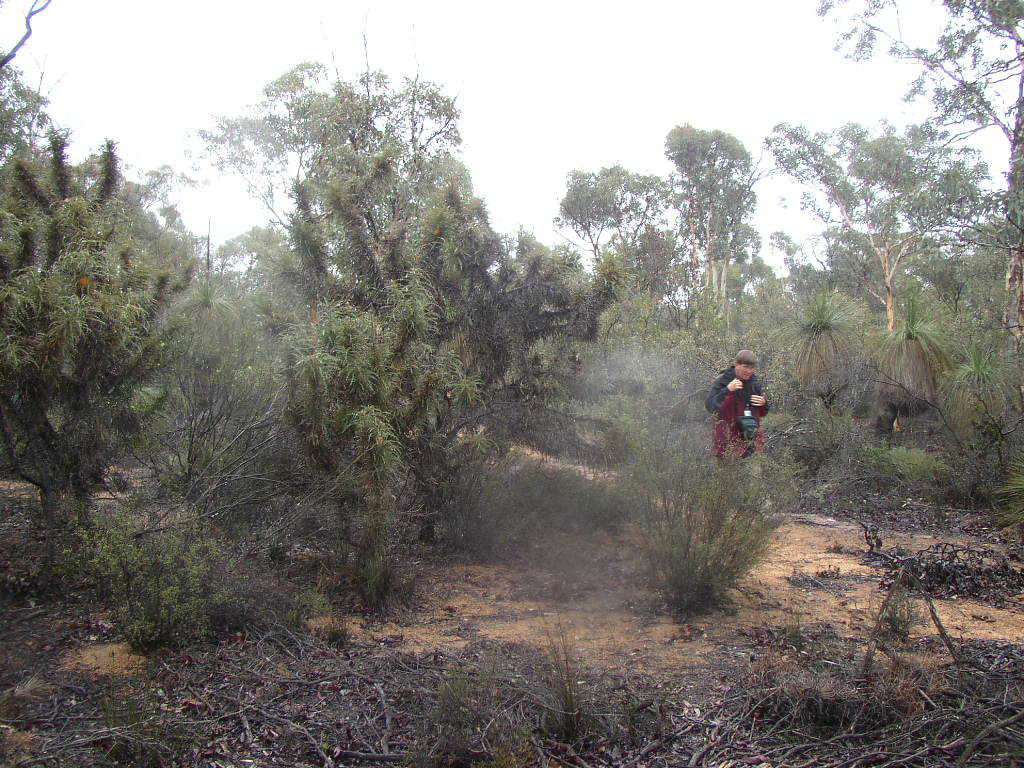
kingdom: Plantae
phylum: Tracheophyta
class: Liliopsida
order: Asparagales
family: Asphodelaceae
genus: Xanthorrhoea
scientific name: Xanthorrhoea drummondii
